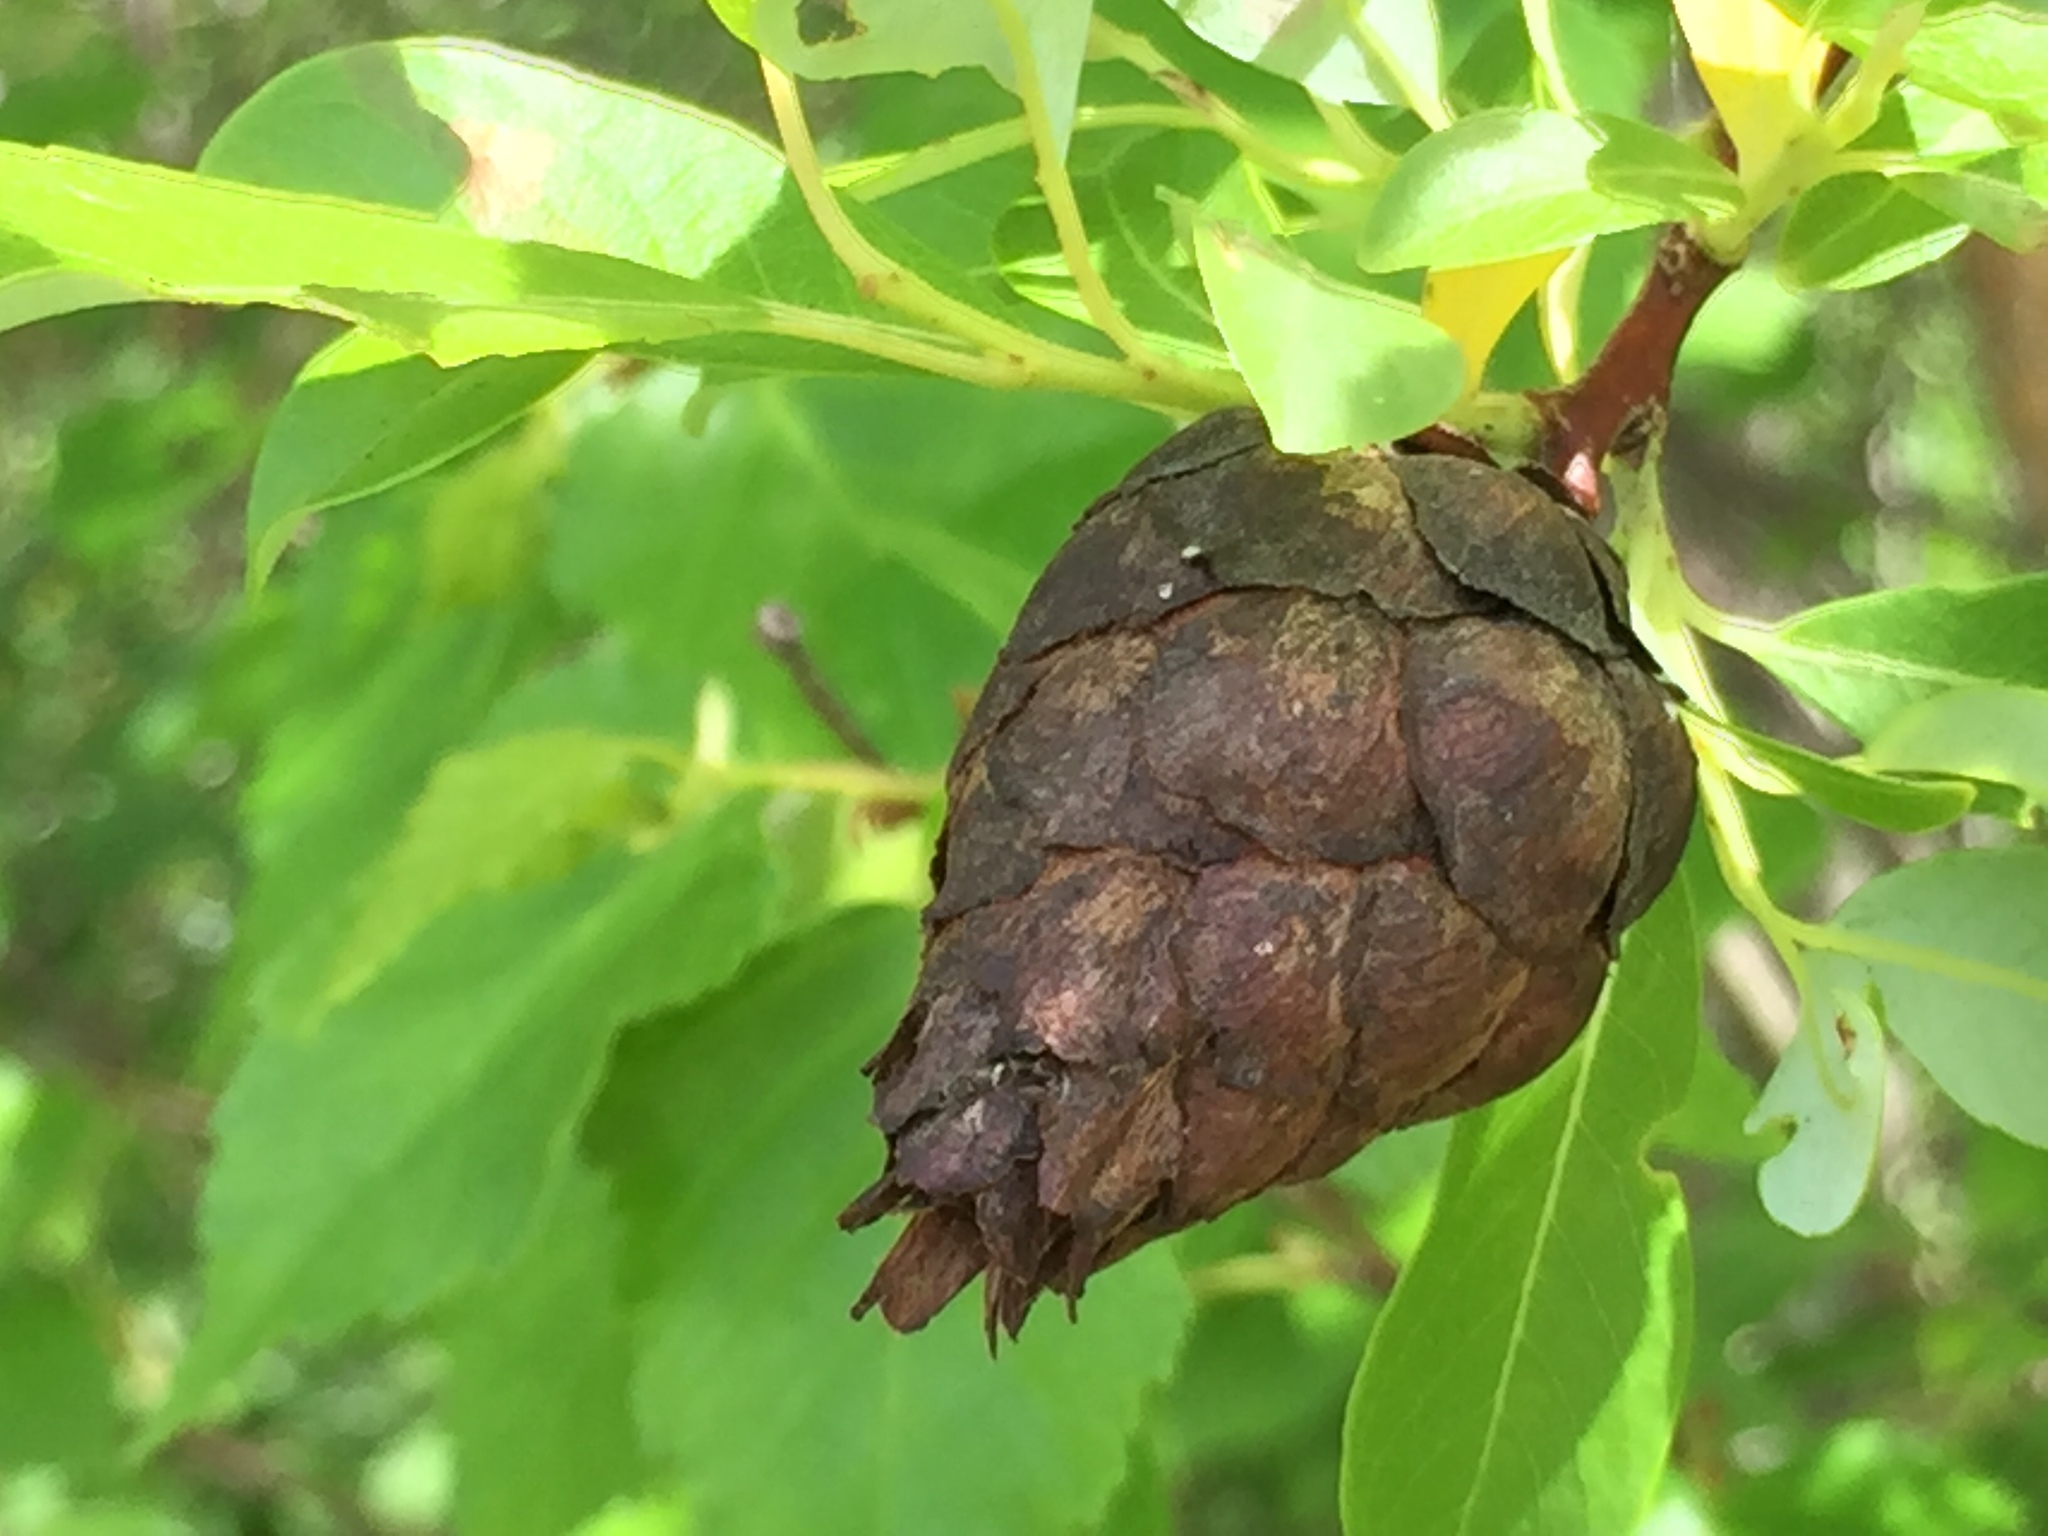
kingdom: Animalia
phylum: Arthropoda
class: Insecta
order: Diptera
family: Cecidomyiidae
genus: Rabdophaga
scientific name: Rabdophaga strobiloides
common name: Willow pinecone gall midge
